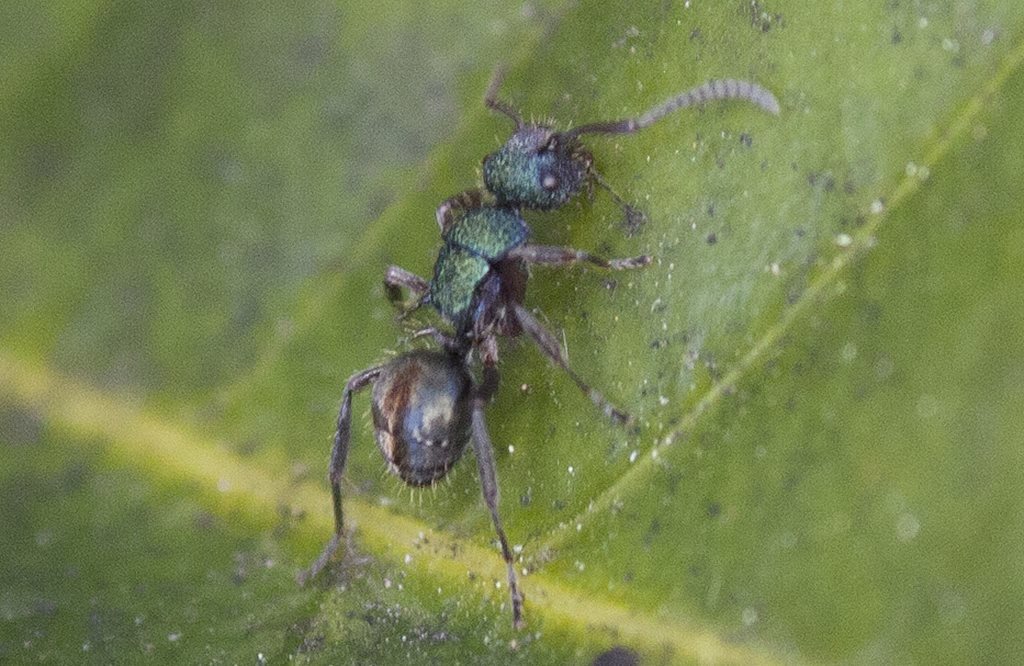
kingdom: Animalia
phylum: Arthropoda
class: Insecta
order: Hymenoptera
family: Formicidae
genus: Polyrhachis
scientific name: Polyrhachis hookeri
